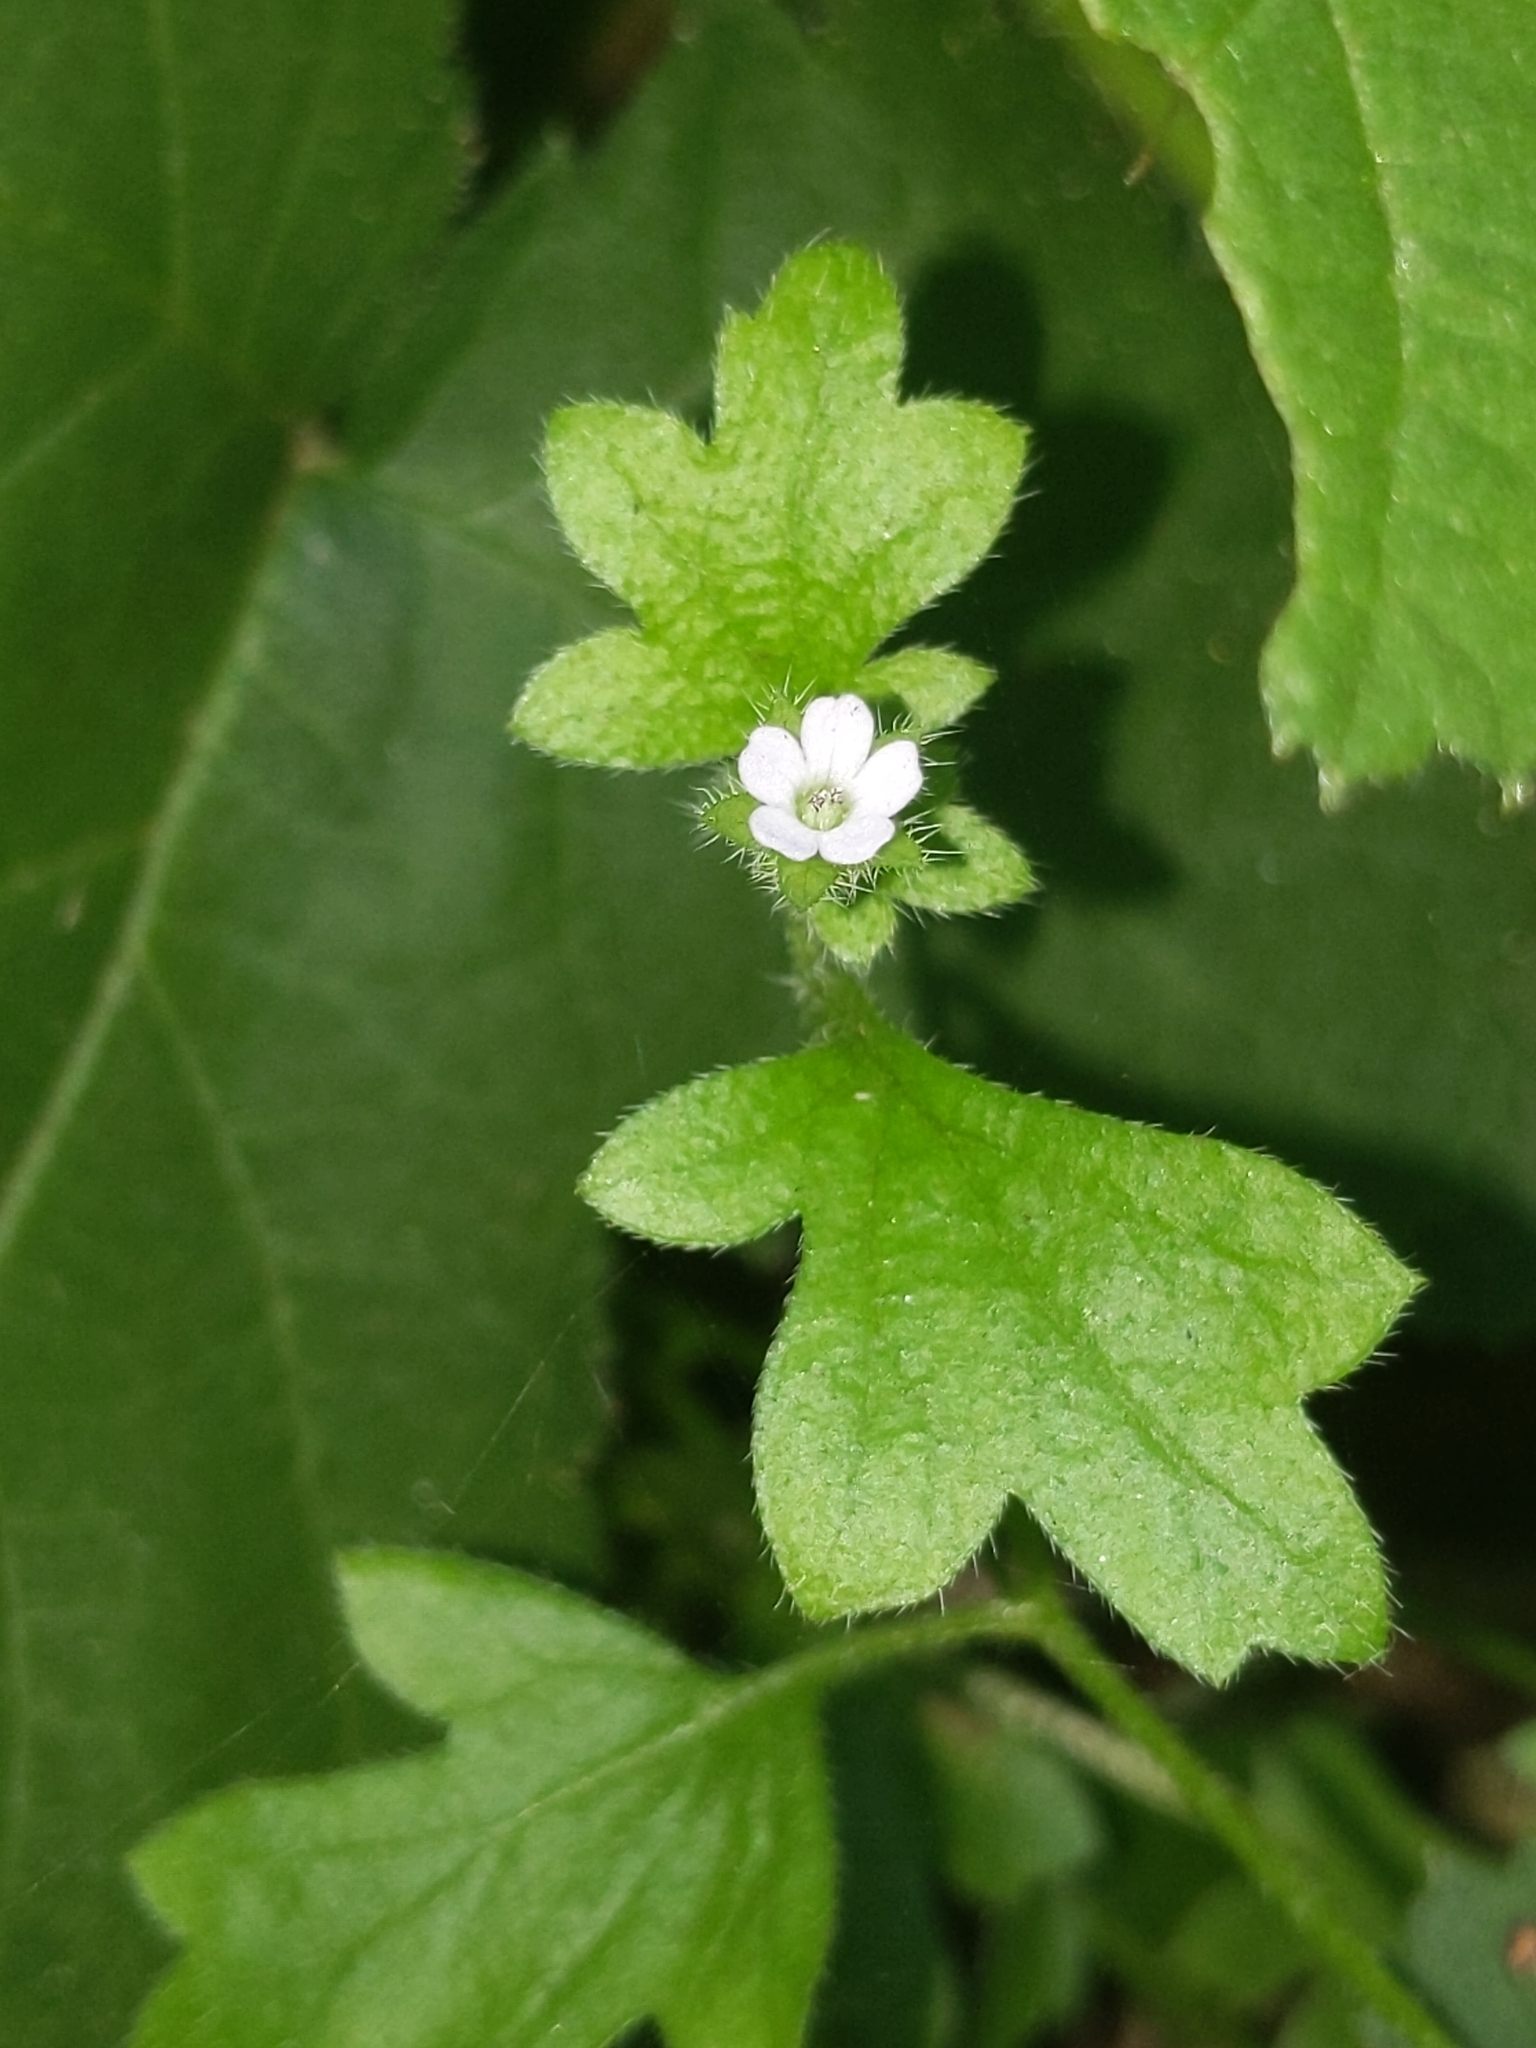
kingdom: Plantae
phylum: Tracheophyta
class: Magnoliopsida
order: Boraginales
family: Hydrophyllaceae
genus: Nemophila
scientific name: Nemophila parviflora
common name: Small-flowered baby-blue-eyes
